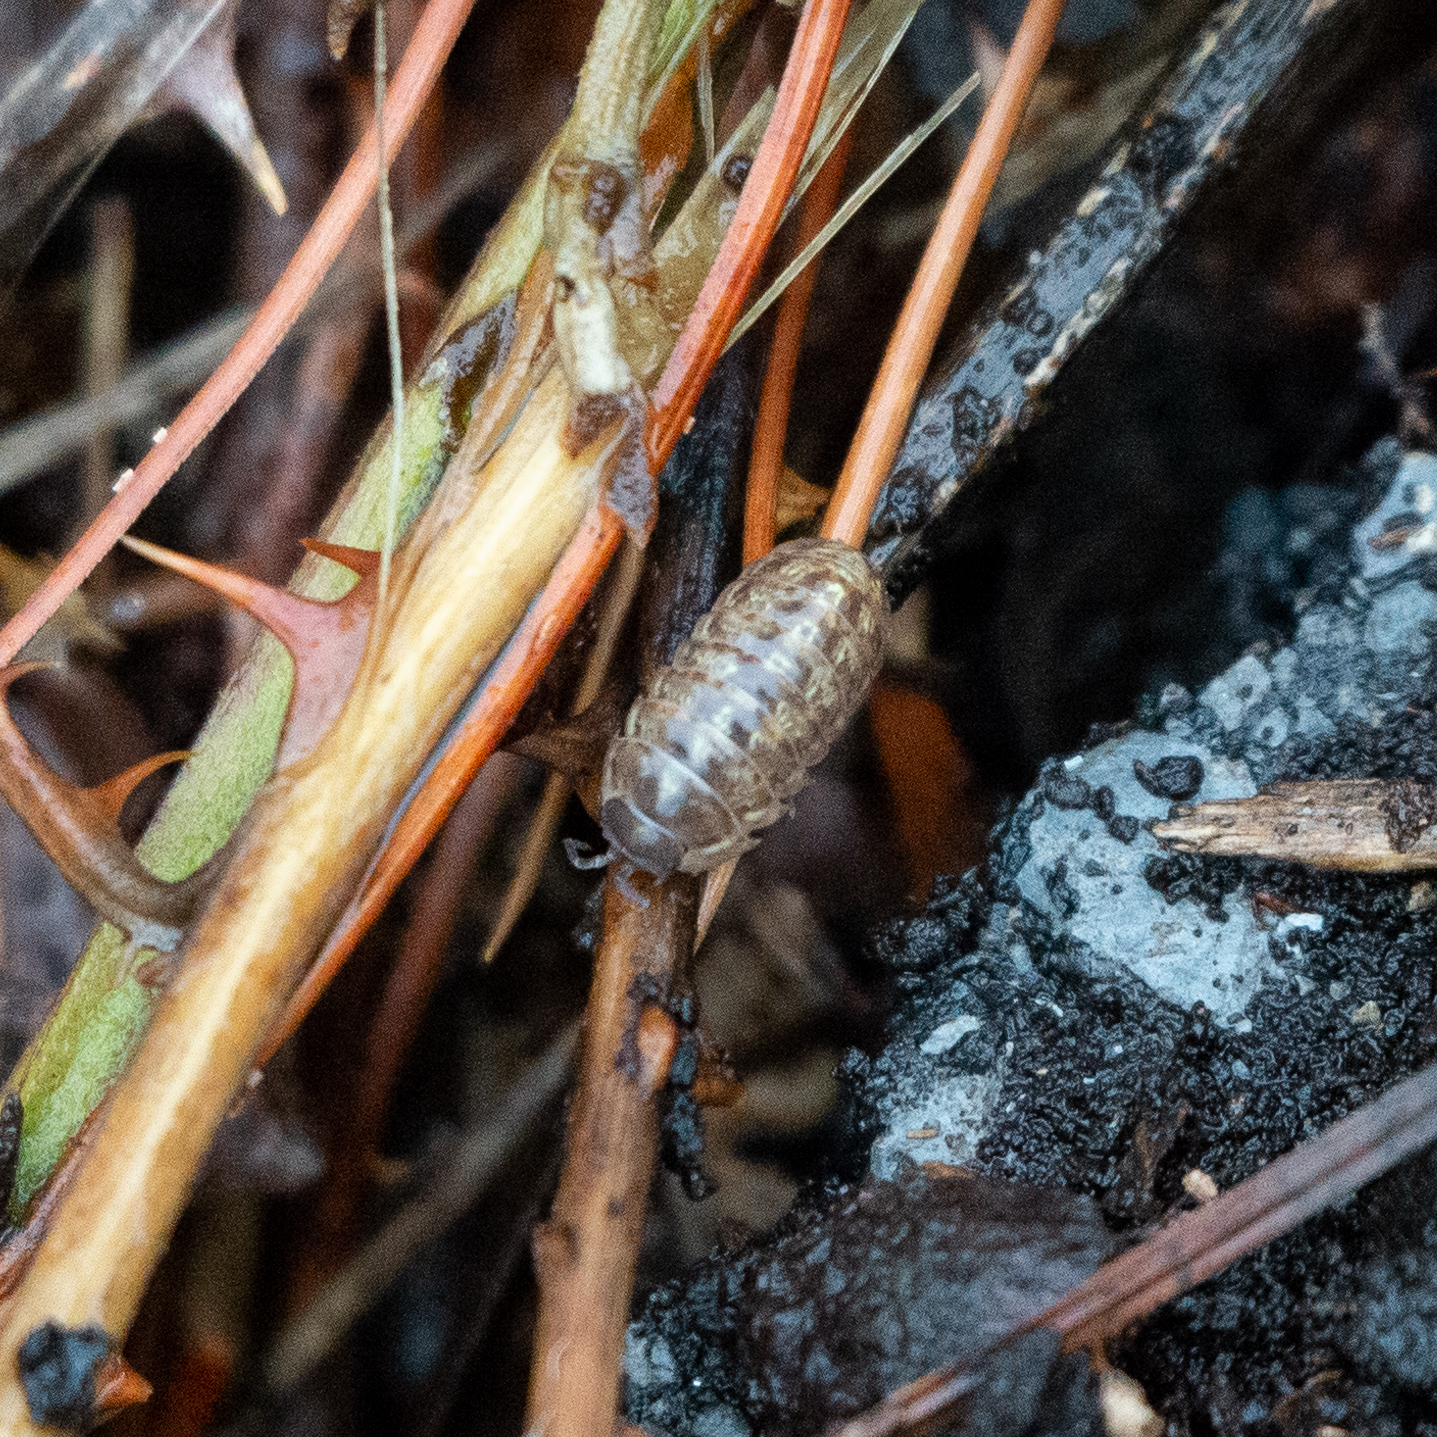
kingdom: Animalia
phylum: Arthropoda
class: Malacostraca
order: Isopoda
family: Armadillidiidae
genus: Armadillidium
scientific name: Armadillidium vulgare
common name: Common pill woodlouse
